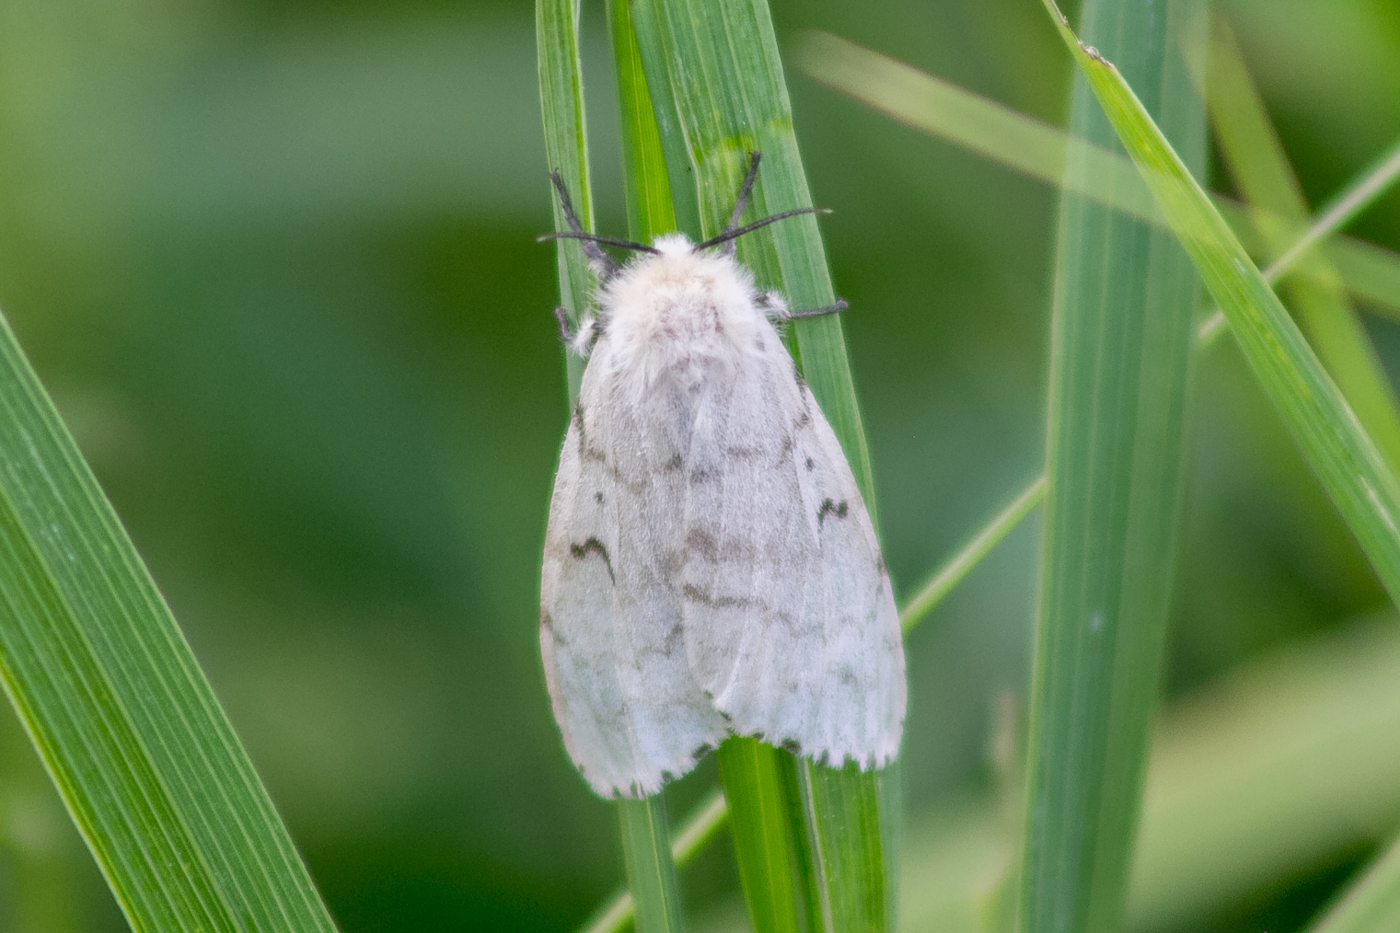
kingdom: Animalia
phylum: Arthropoda
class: Insecta
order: Lepidoptera
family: Erebidae
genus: Lymantria
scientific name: Lymantria dispar
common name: Gypsy moth
